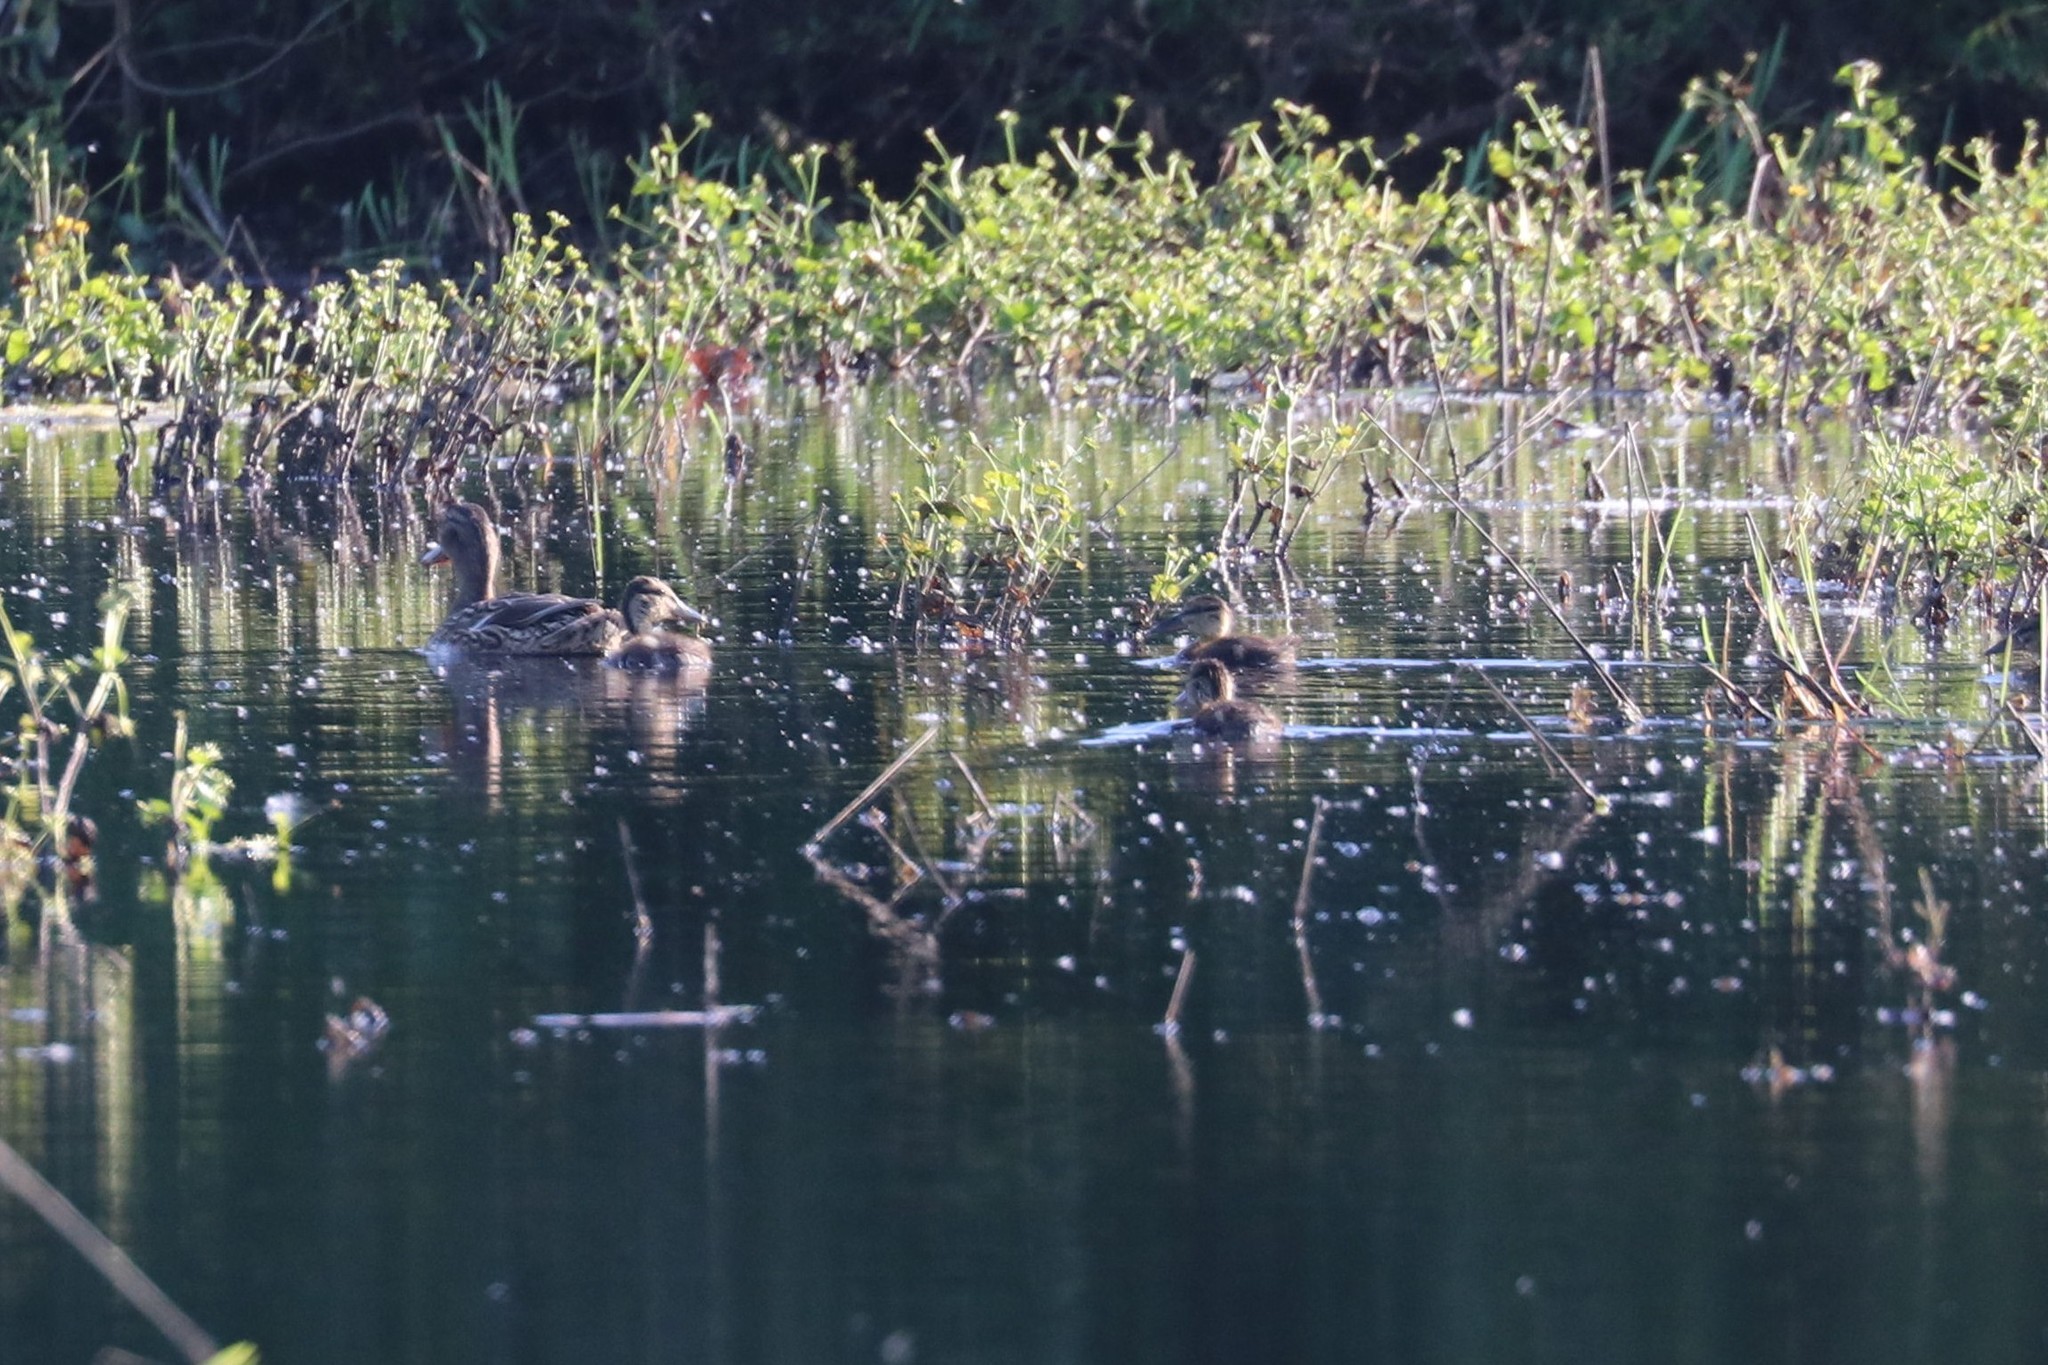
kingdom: Animalia
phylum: Chordata
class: Aves
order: Anseriformes
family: Anatidae
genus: Anas
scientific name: Anas platyrhynchos
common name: Mallard
